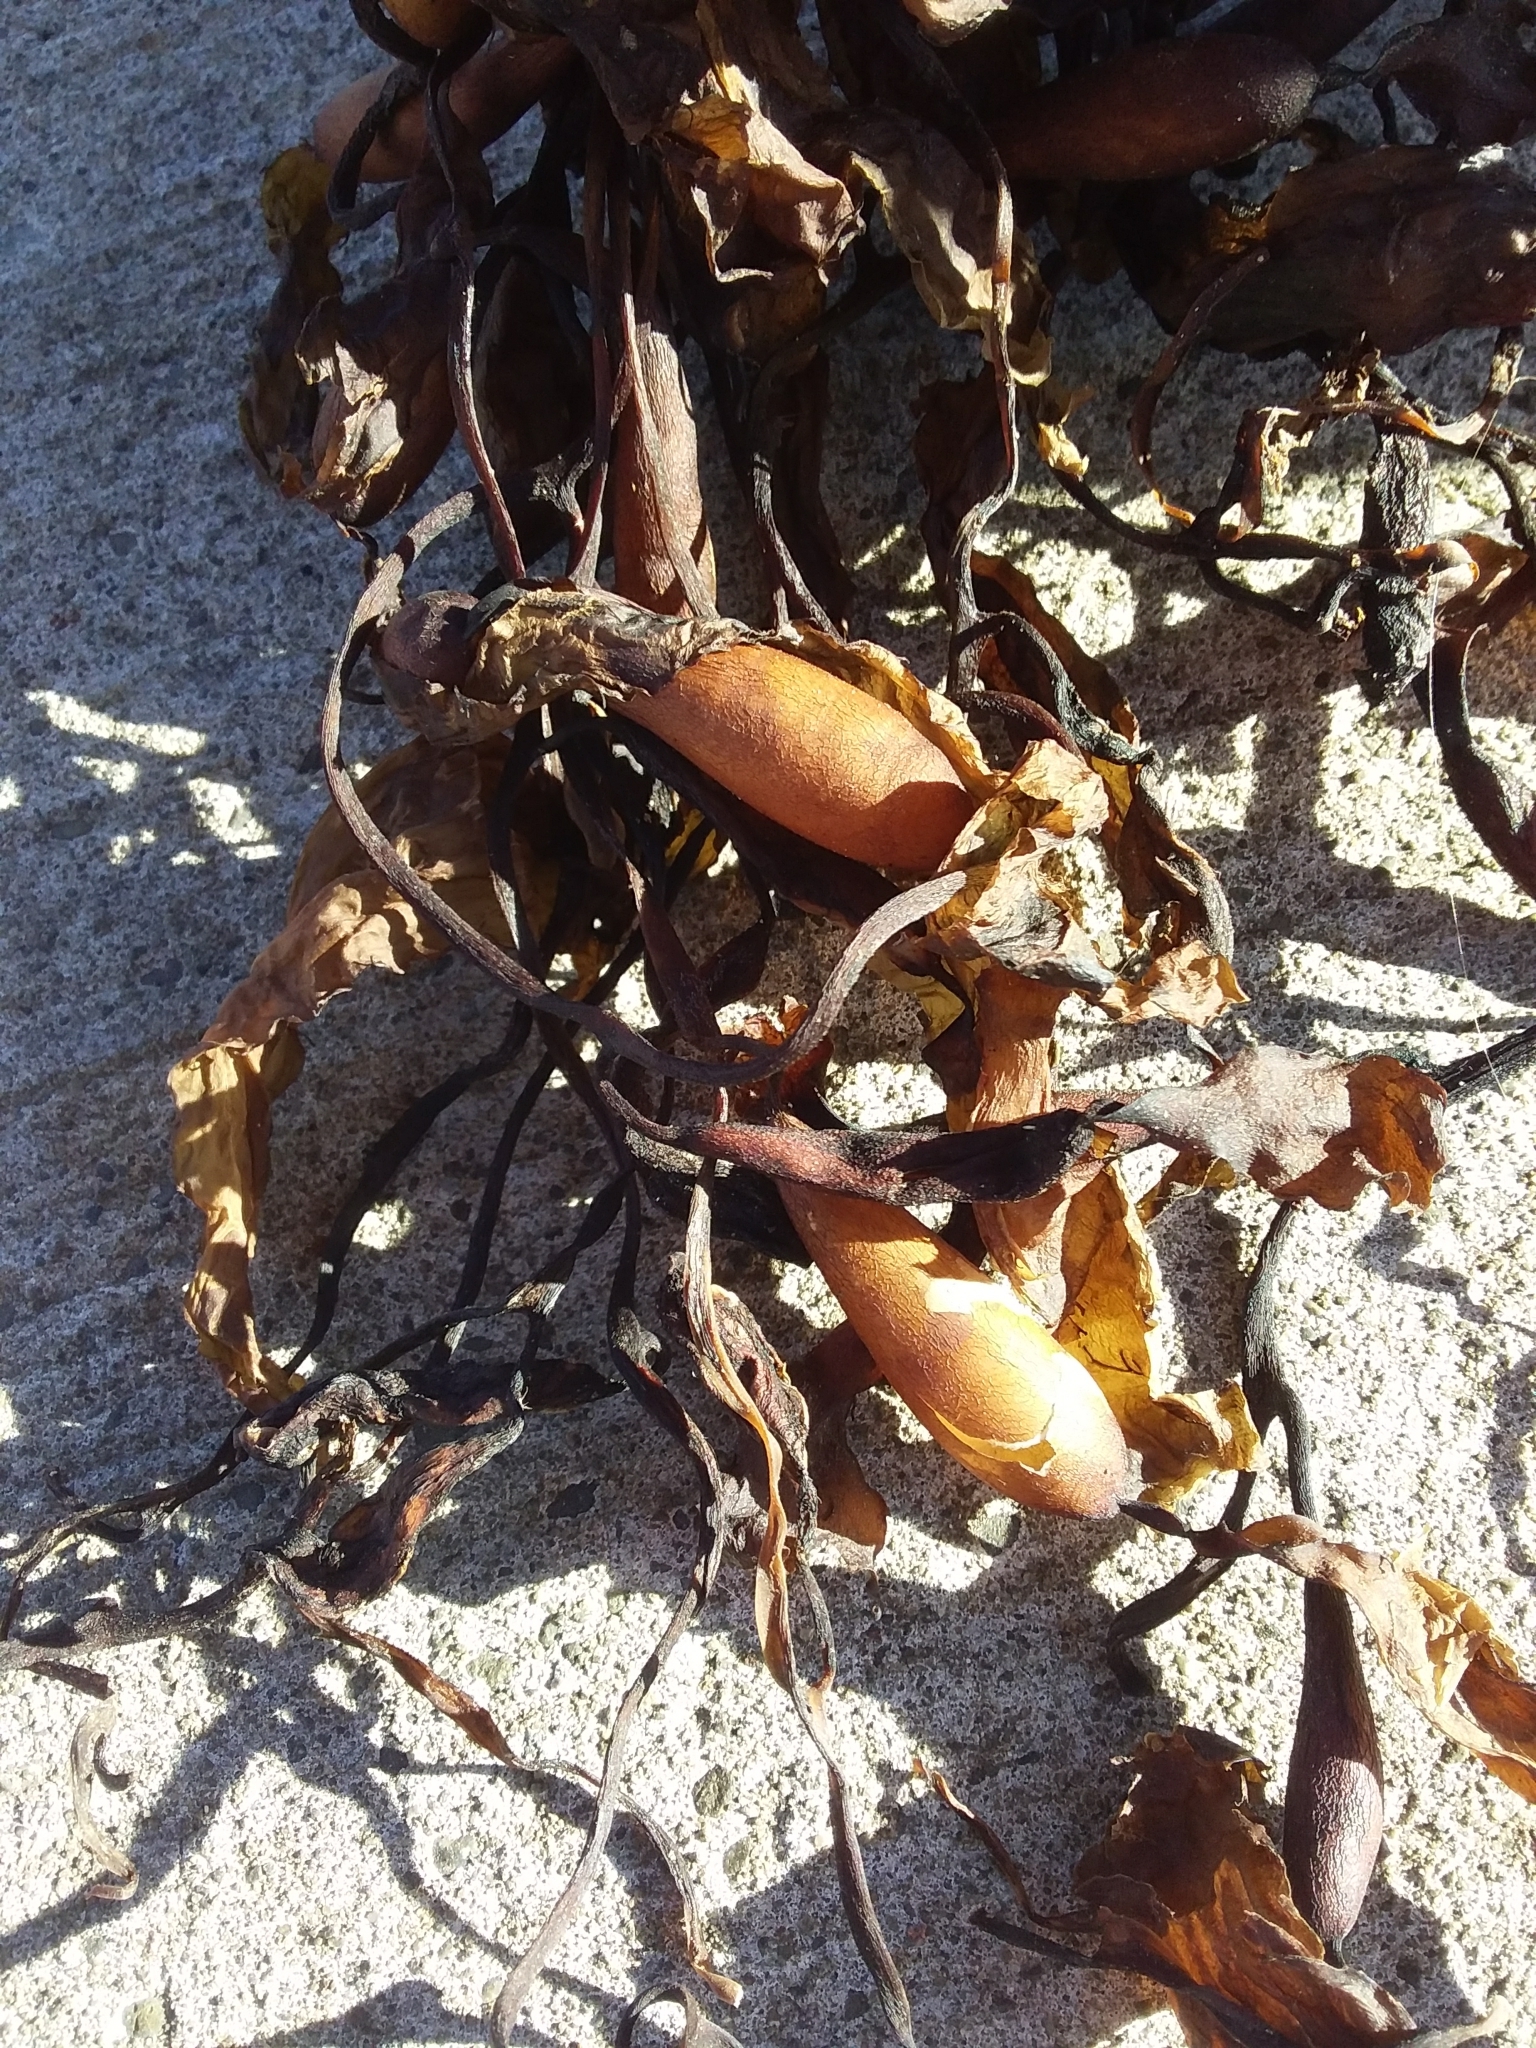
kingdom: Chromista
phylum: Ochrophyta
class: Phaeophyceae
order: Laminariales
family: Laminariaceae
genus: Macrocystis
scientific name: Macrocystis pyrifera
